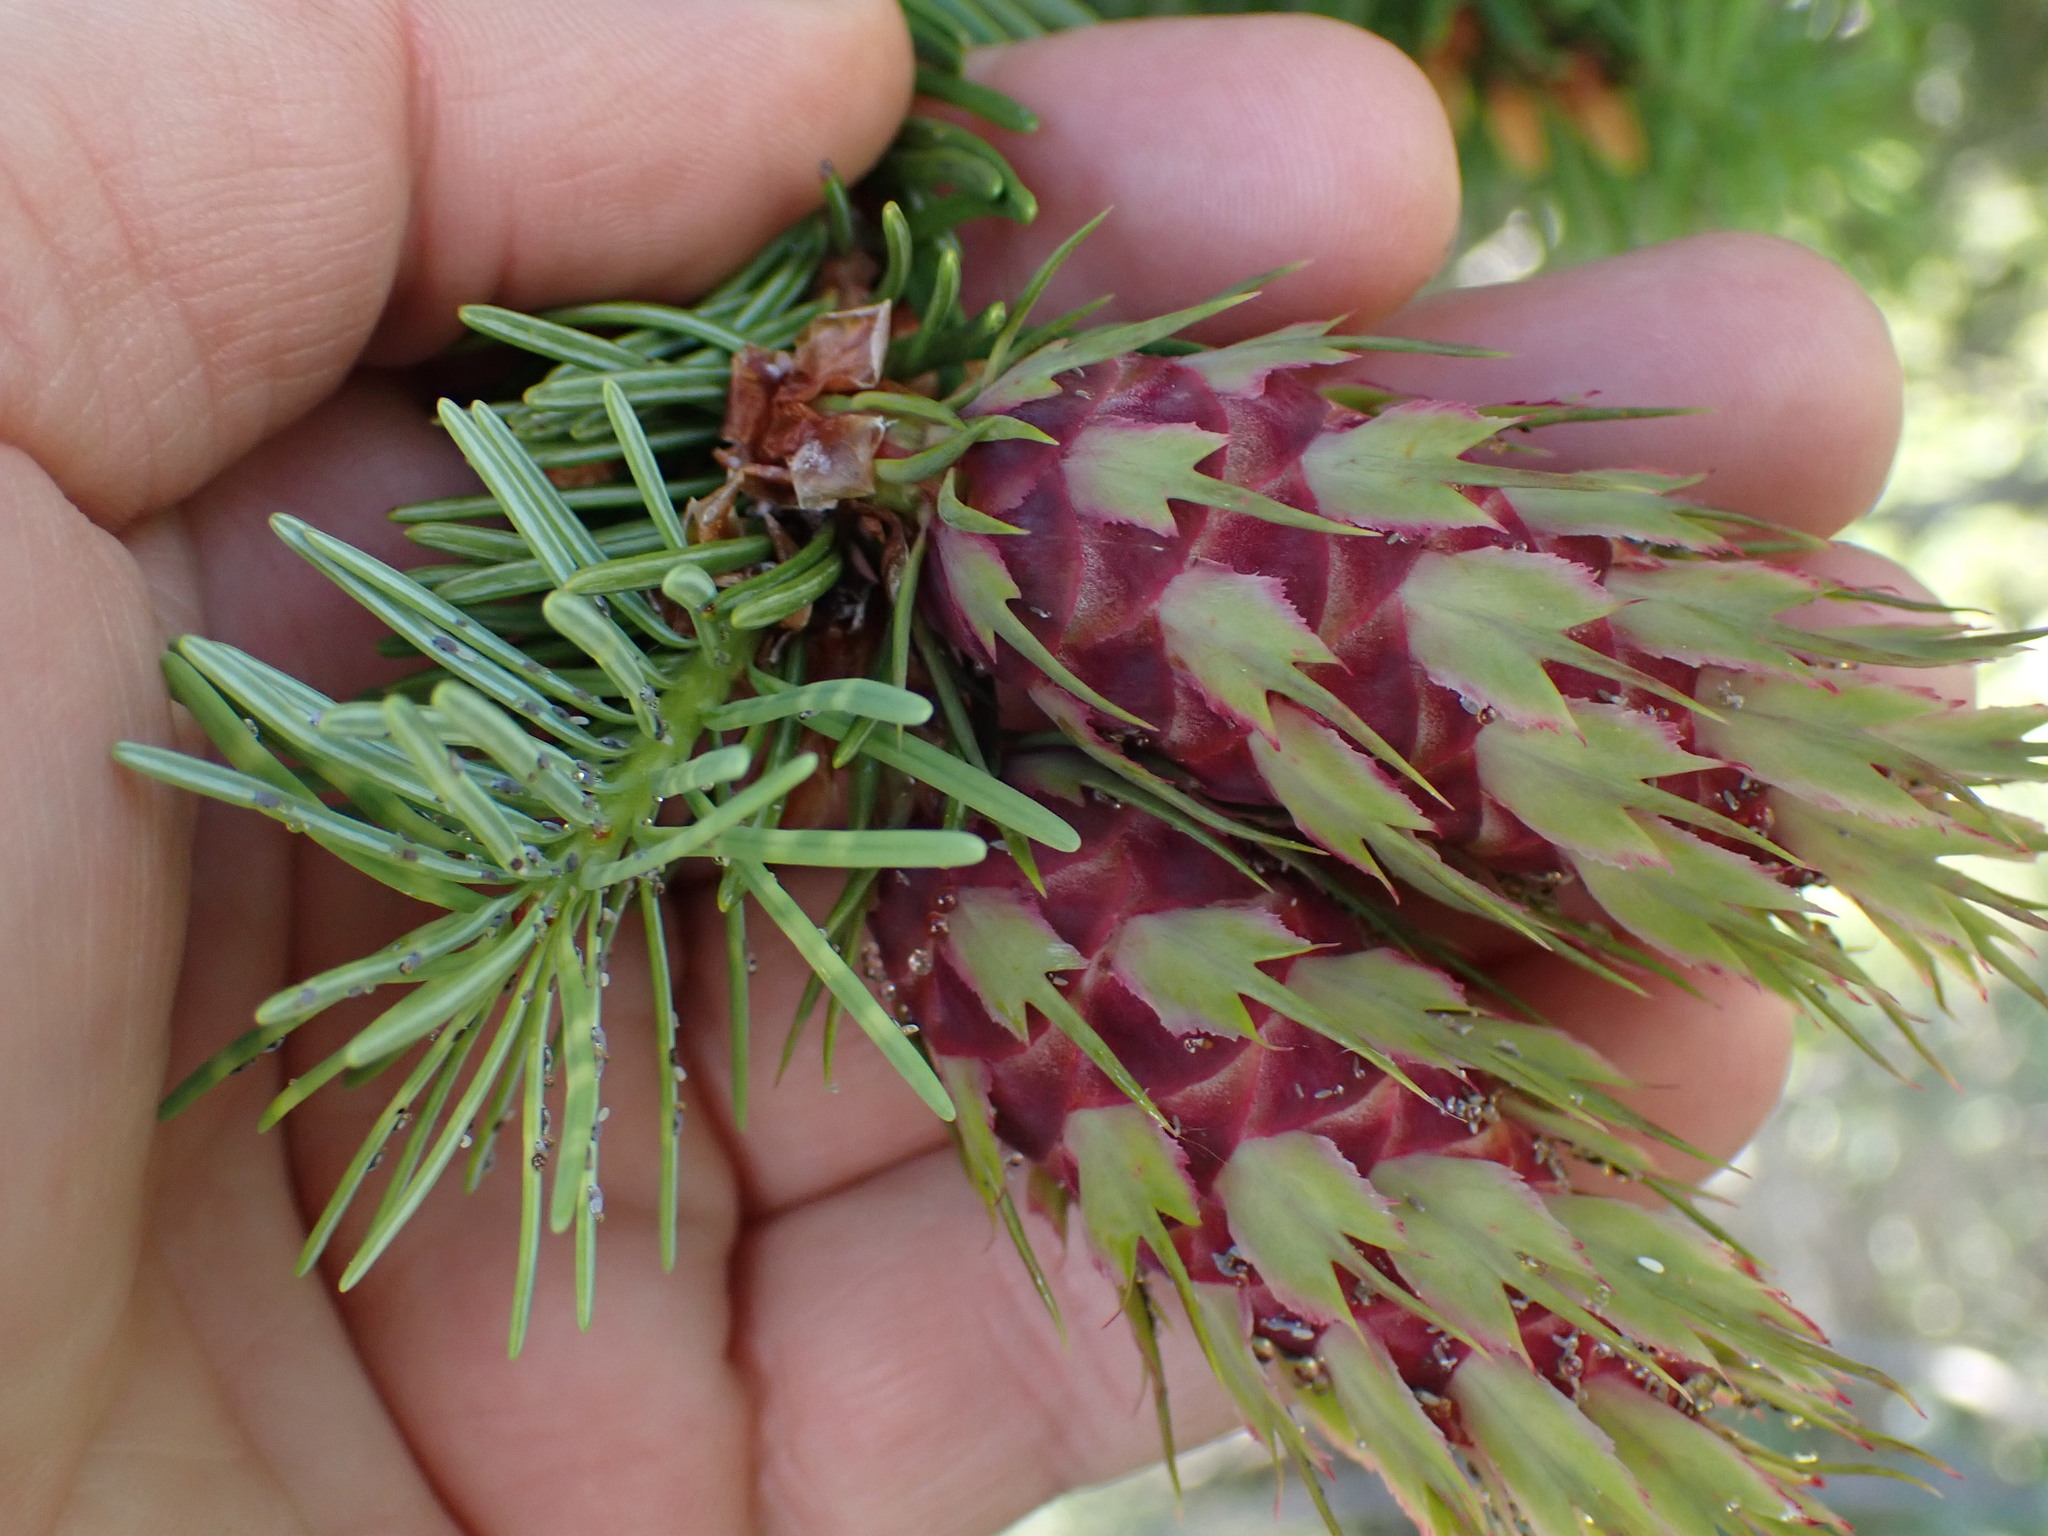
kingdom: Plantae
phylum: Tracheophyta
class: Pinopsida
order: Pinales
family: Pinaceae
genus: Pseudotsuga
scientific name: Pseudotsuga menziesii
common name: Douglas fir
